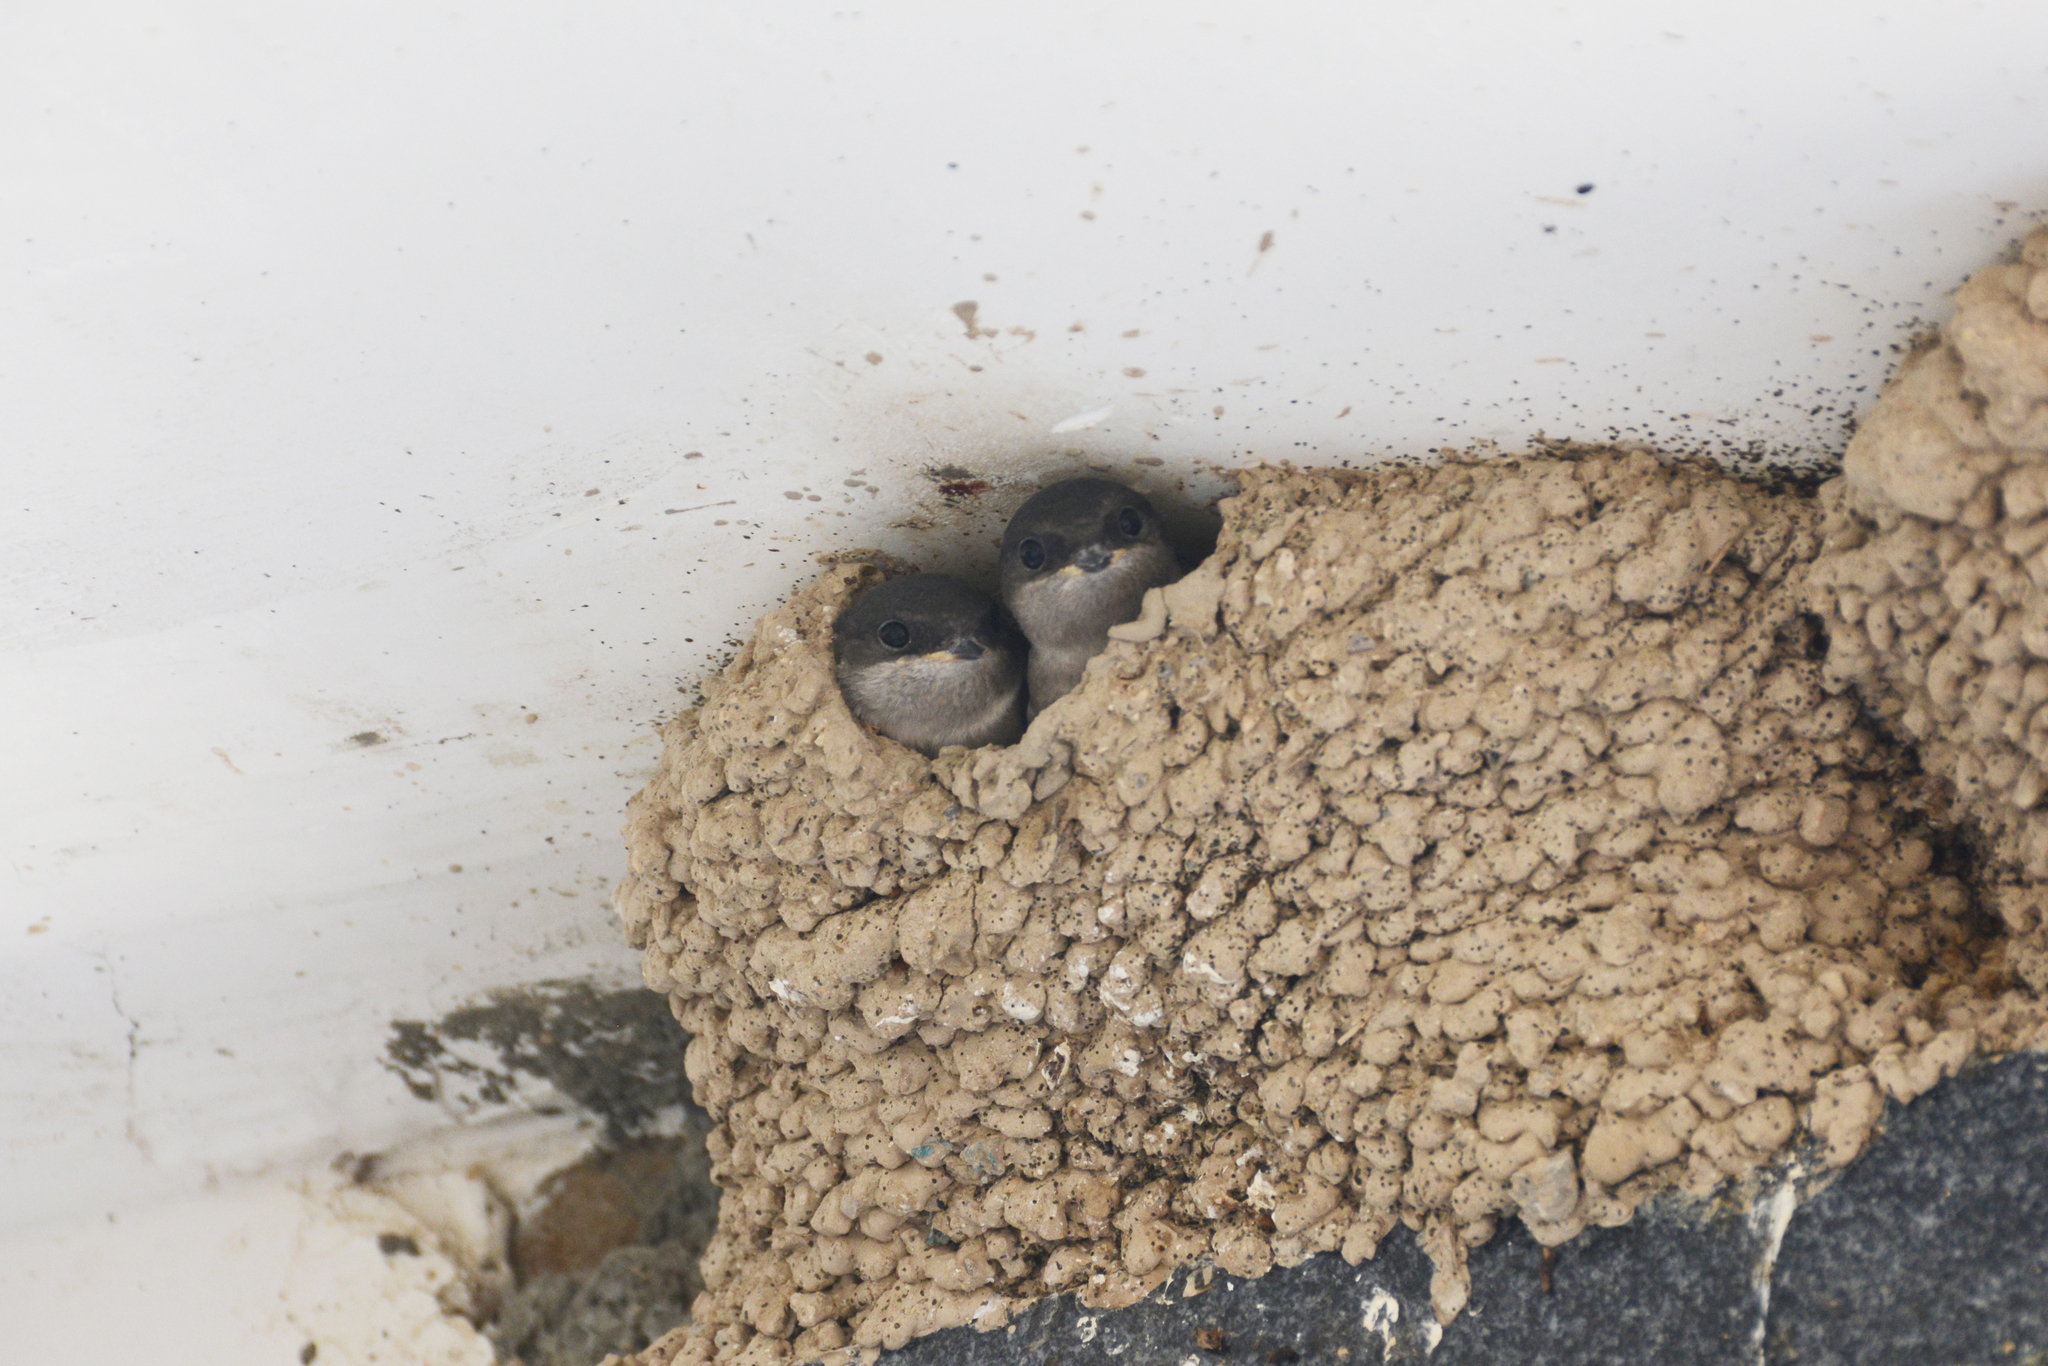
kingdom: Animalia
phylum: Chordata
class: Aves
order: Passeriformes
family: Hirundinidae
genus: Delichon
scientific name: Delichon urbicum
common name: Common house martin
